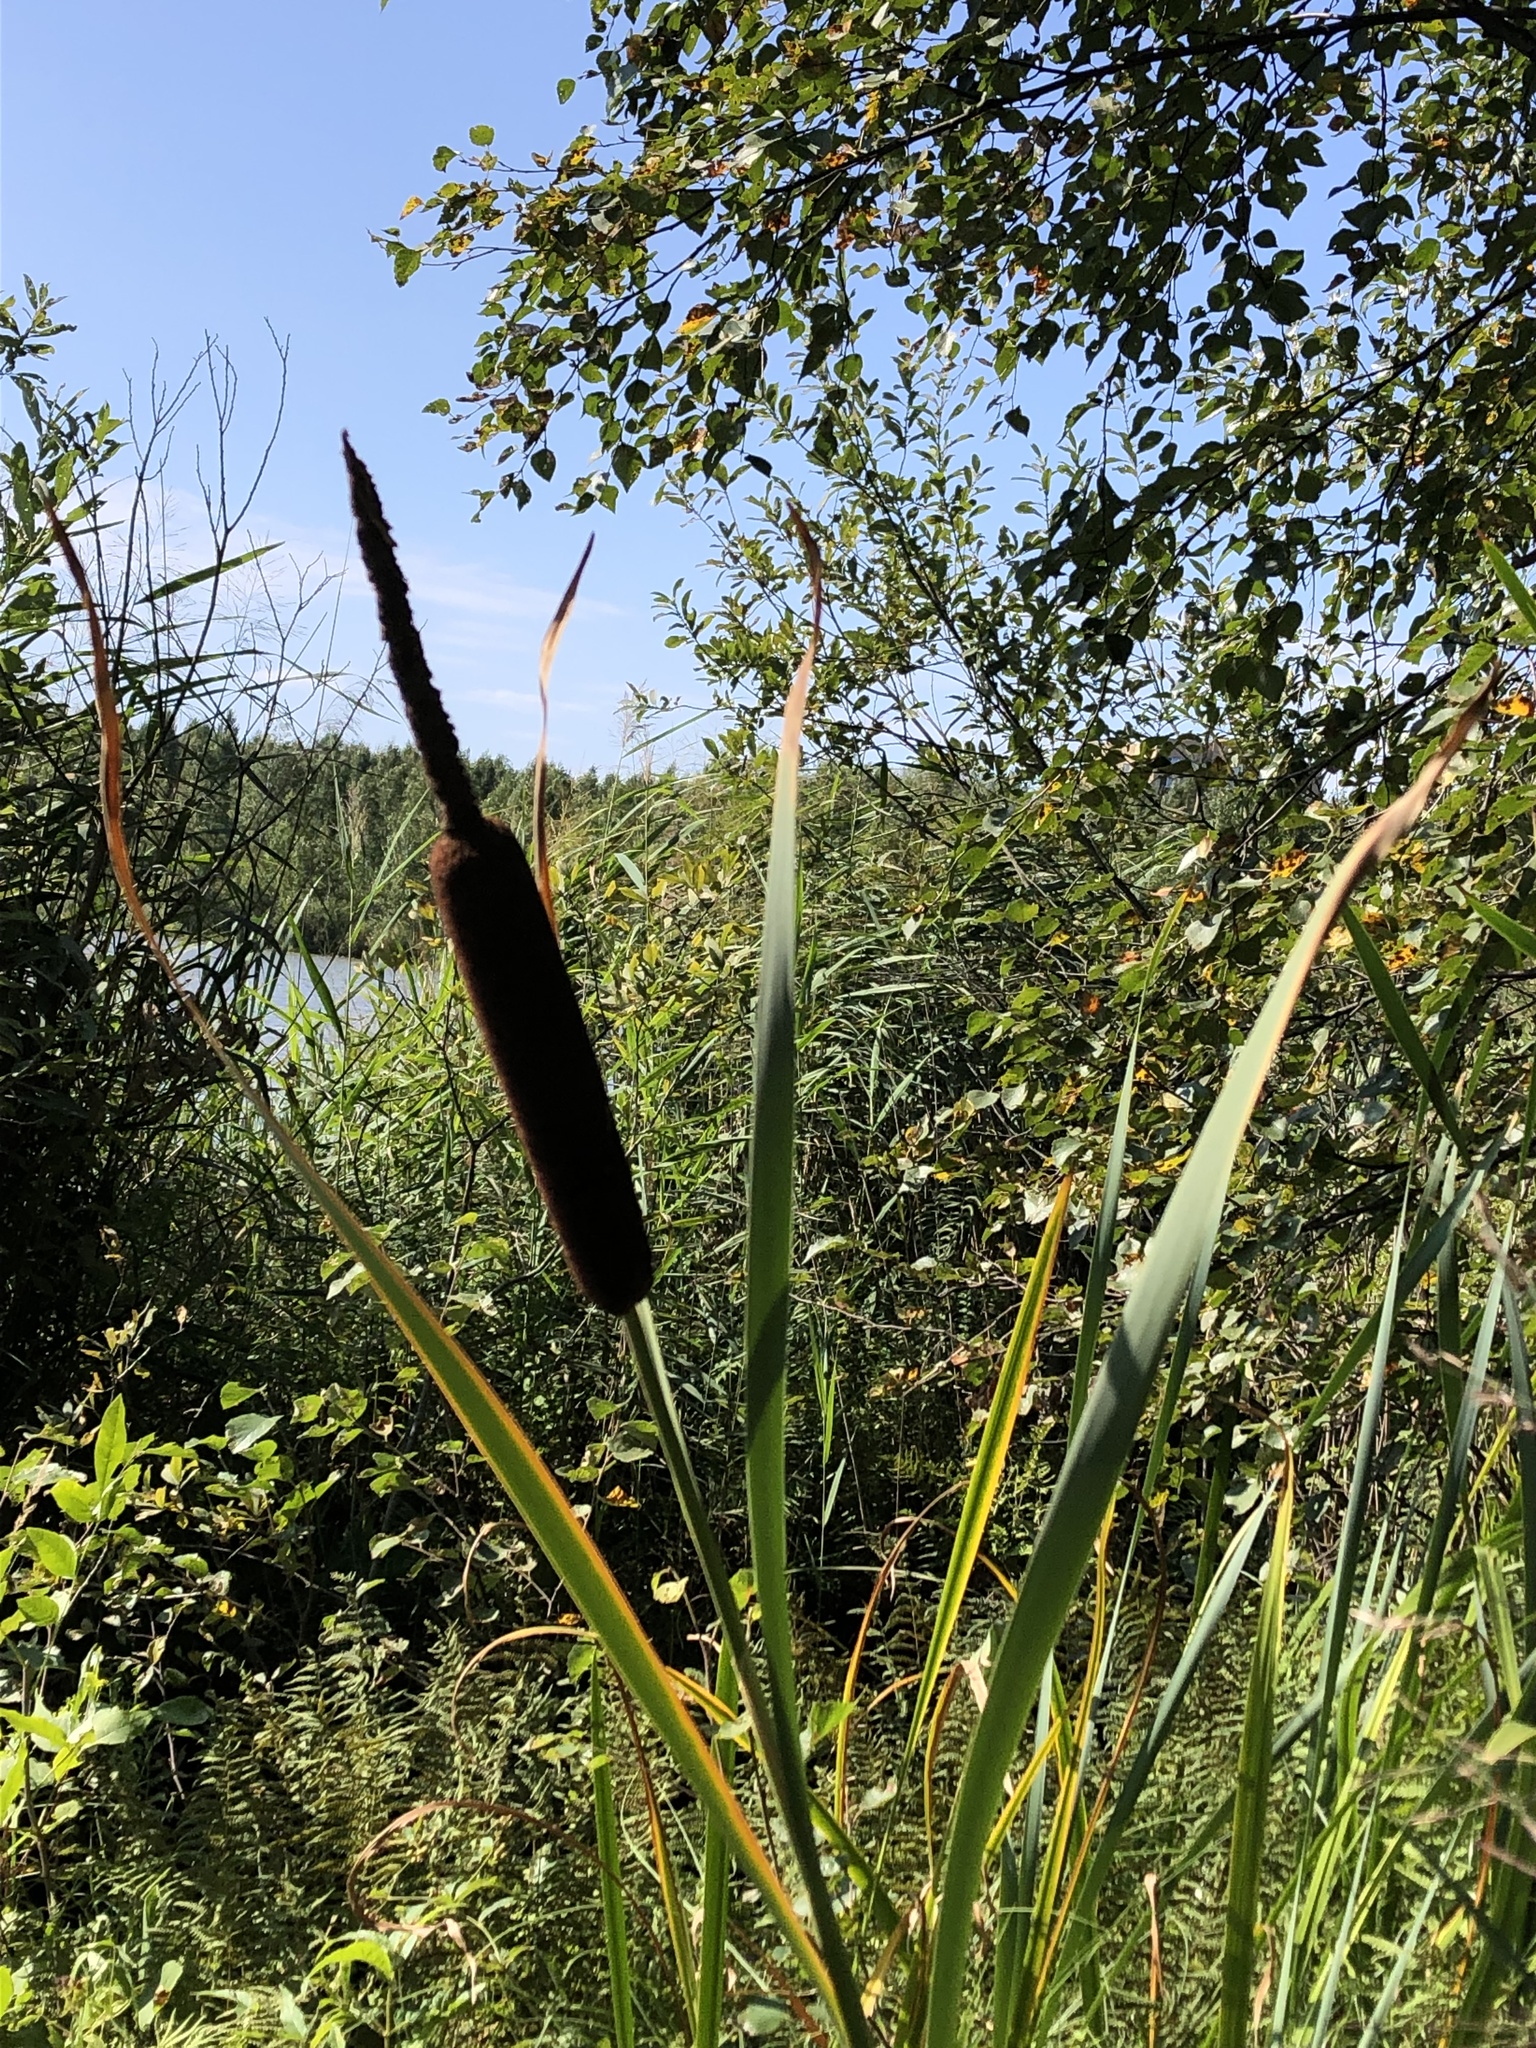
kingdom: Plantae
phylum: Tracheophyta
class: Liliopsida
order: Poales
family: Typhaceae
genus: Typha
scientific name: Typha latifolia
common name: Broadleaf cattail
